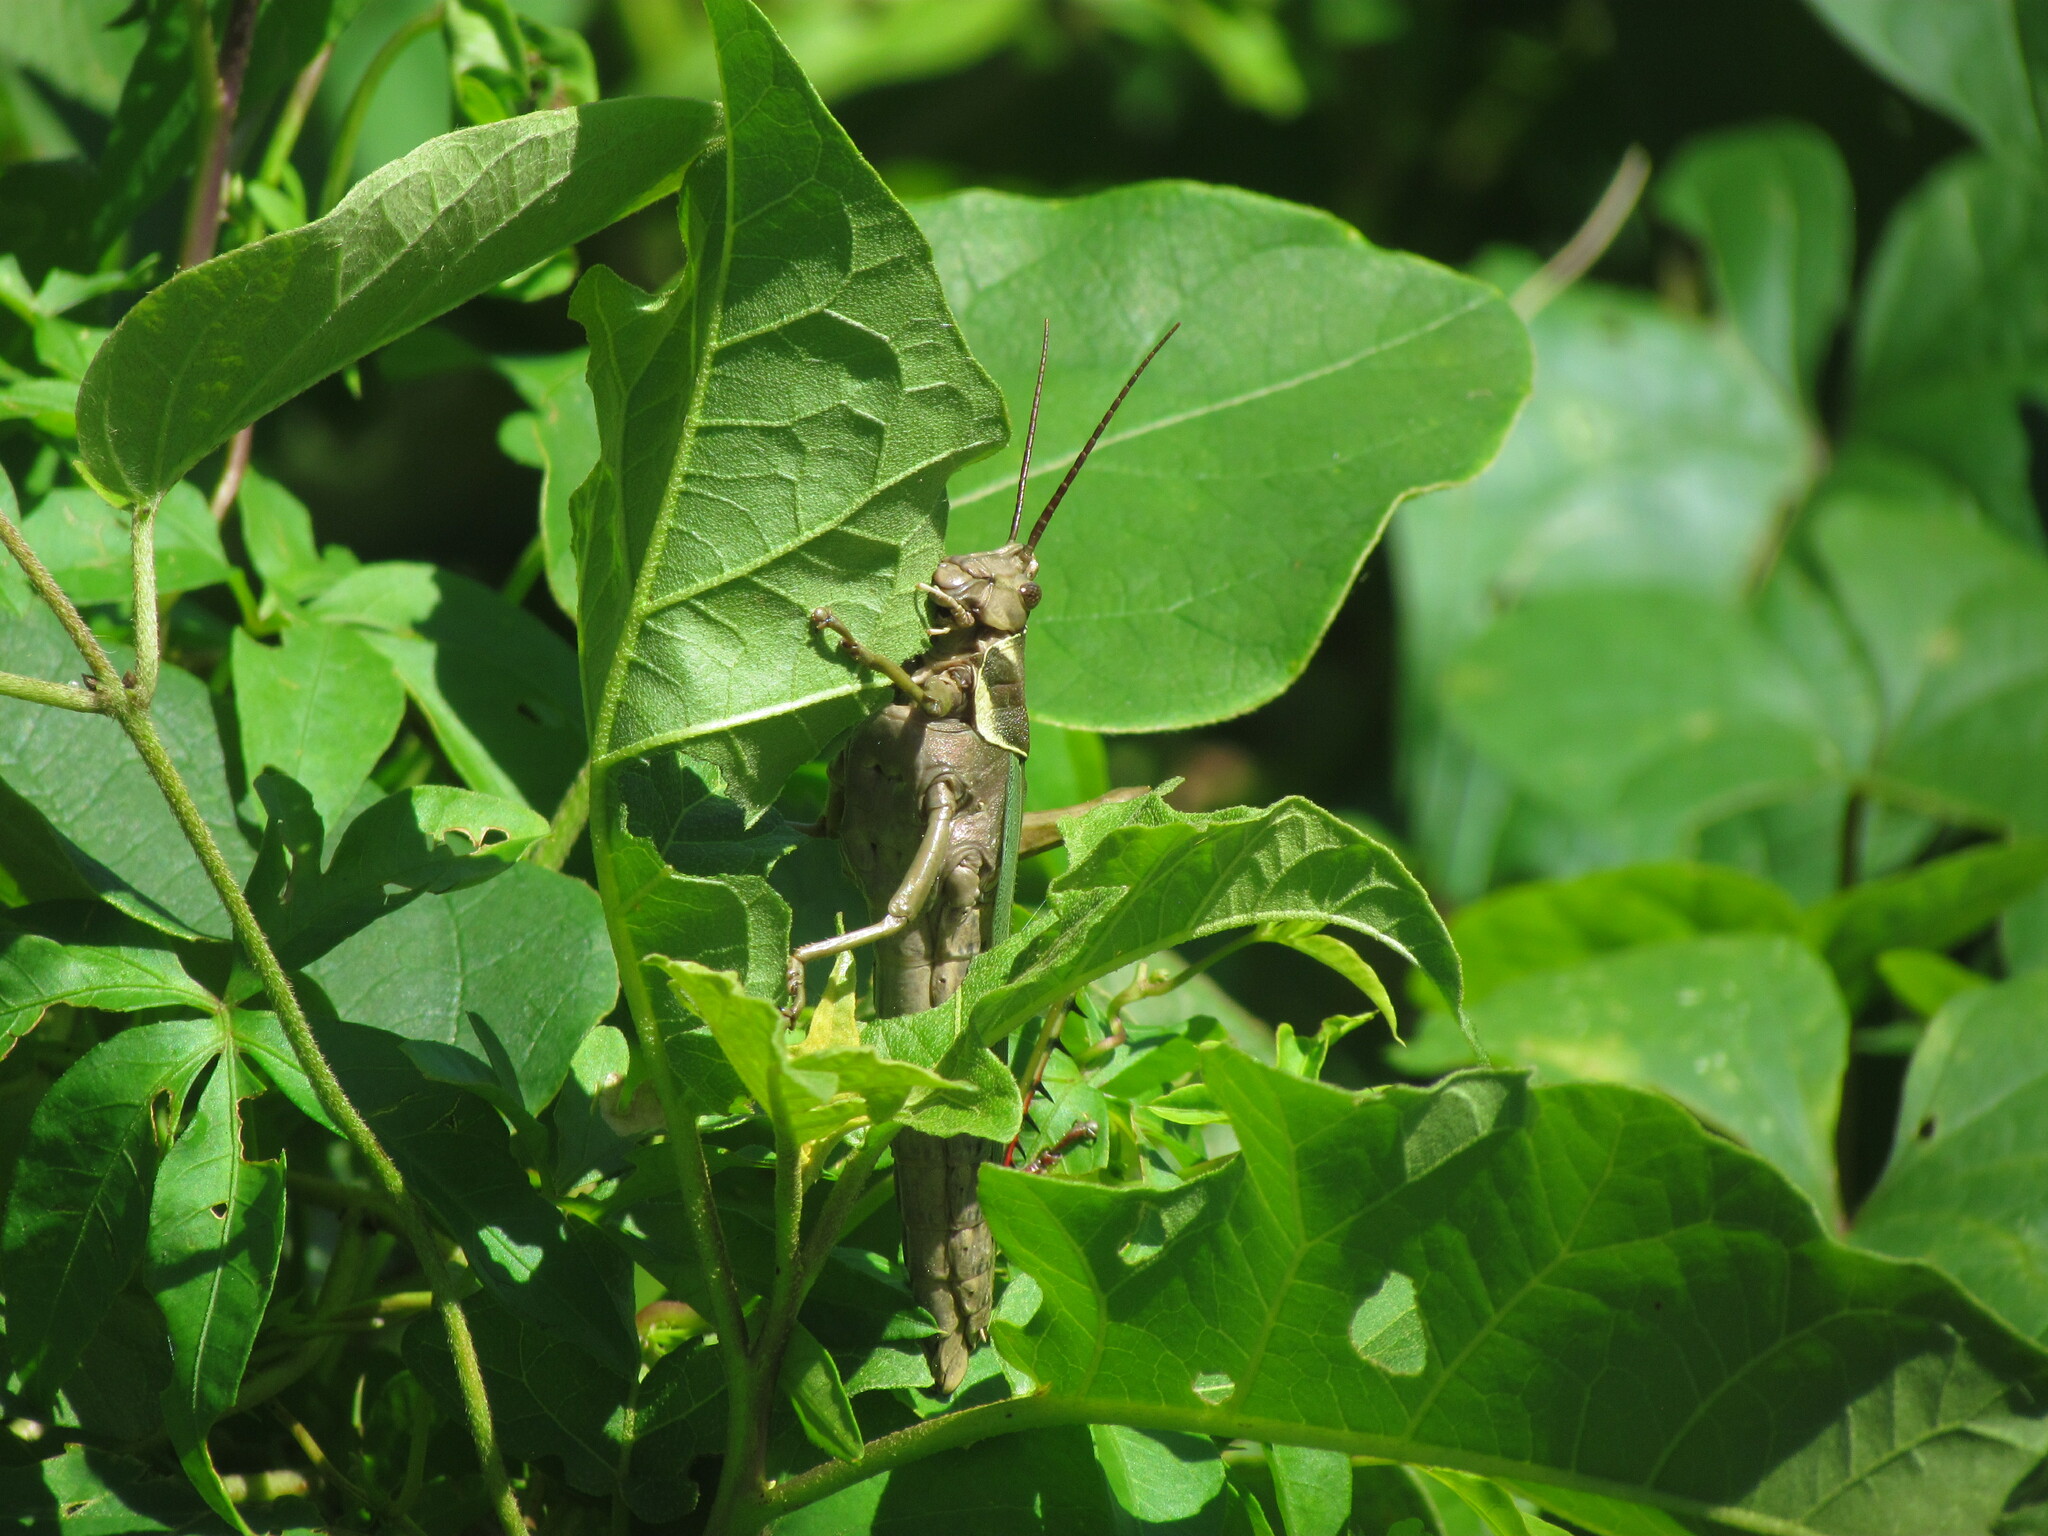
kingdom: Animalia
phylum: Arthropoda
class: Insecta
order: Orthoptera
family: Romaleidae
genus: Coryacris
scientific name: Coryacris angustipennis
